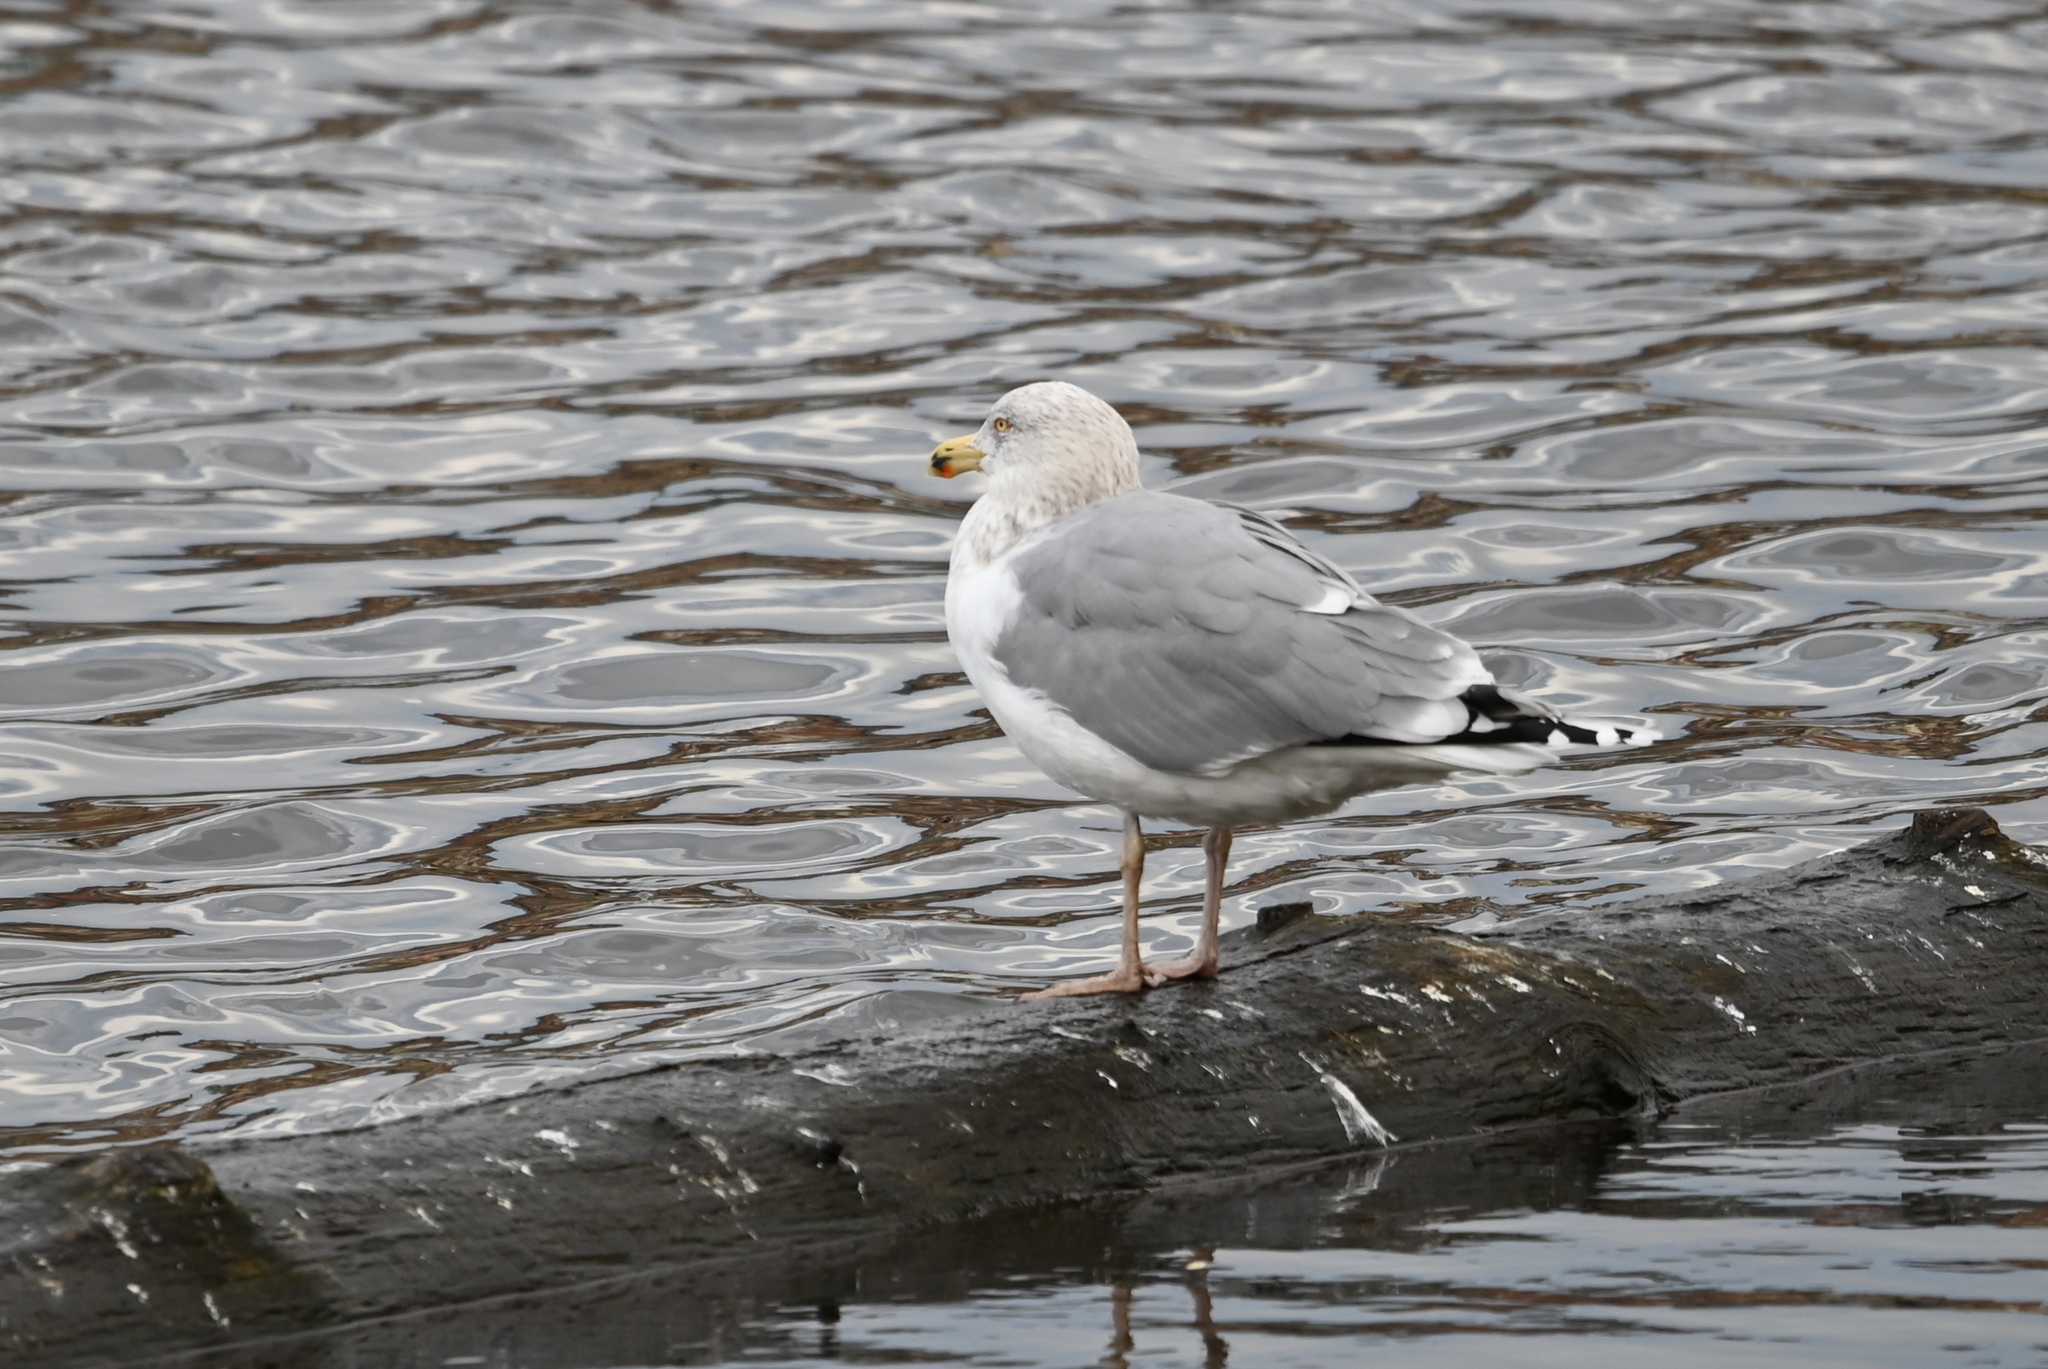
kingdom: Animalia
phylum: Chordata
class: Aves
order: Charadriiformes
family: Laridae
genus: Larus
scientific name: Larus argentatus
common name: Herring gull
